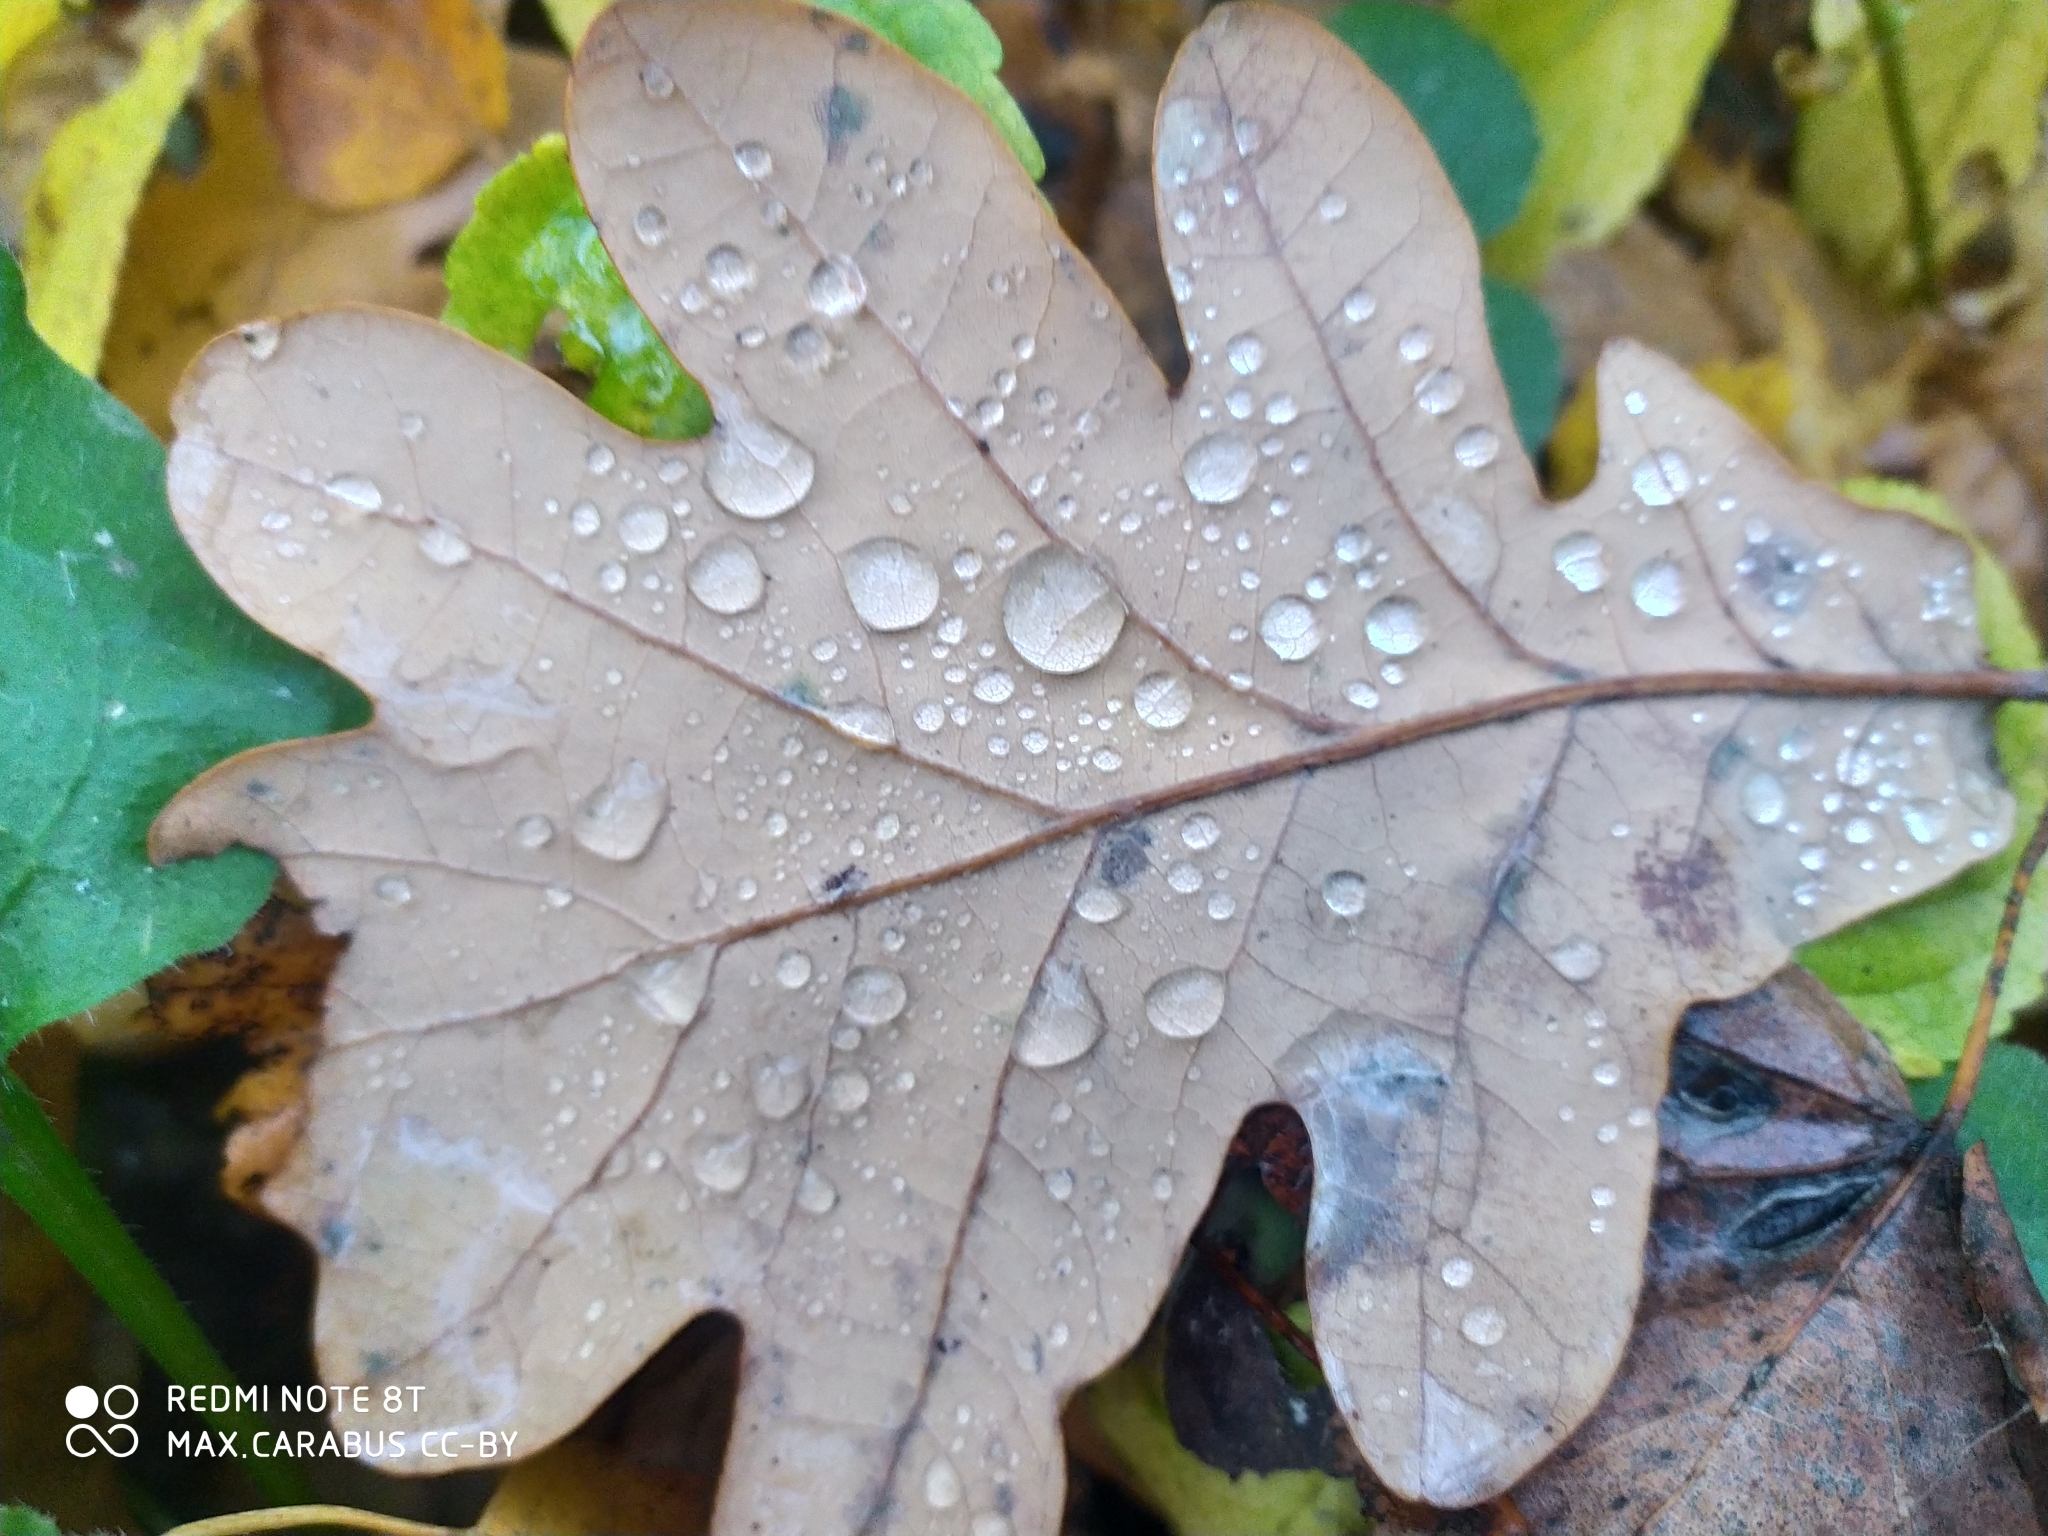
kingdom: Plantae
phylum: Tracheophyta
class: Magnoliopsida
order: Fagales
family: Fagaceae
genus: Quercus
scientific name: Quercus robur
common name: Pedunculate oak
